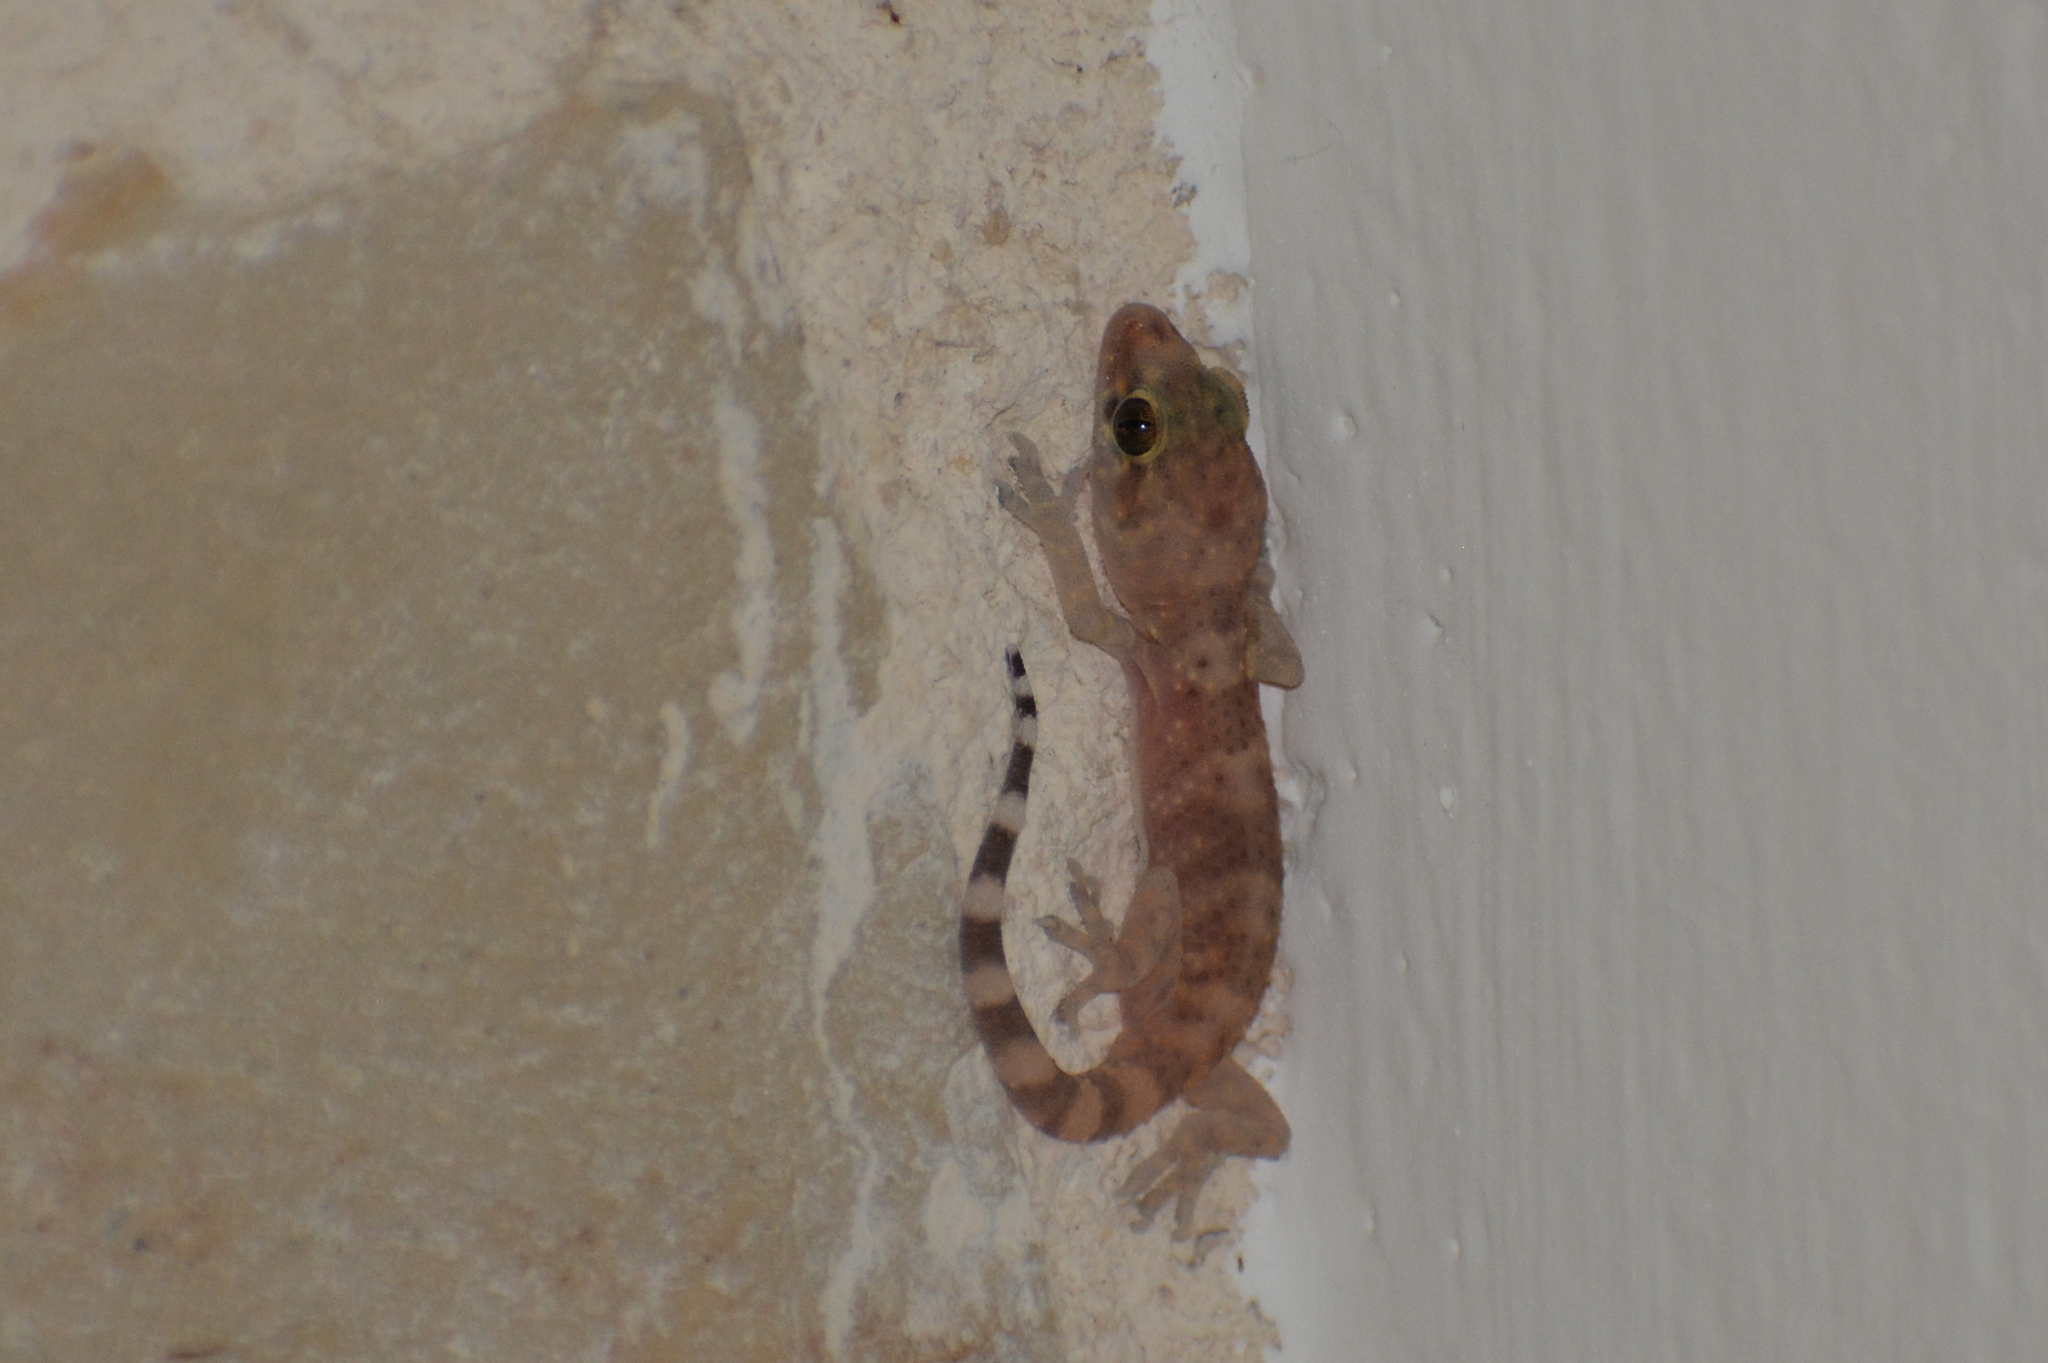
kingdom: Animalia
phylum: Chordata
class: Squamata
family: Gekkonidae
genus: Hemidactylus
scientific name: Hemidactylus turcicus
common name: Turkish gecko
